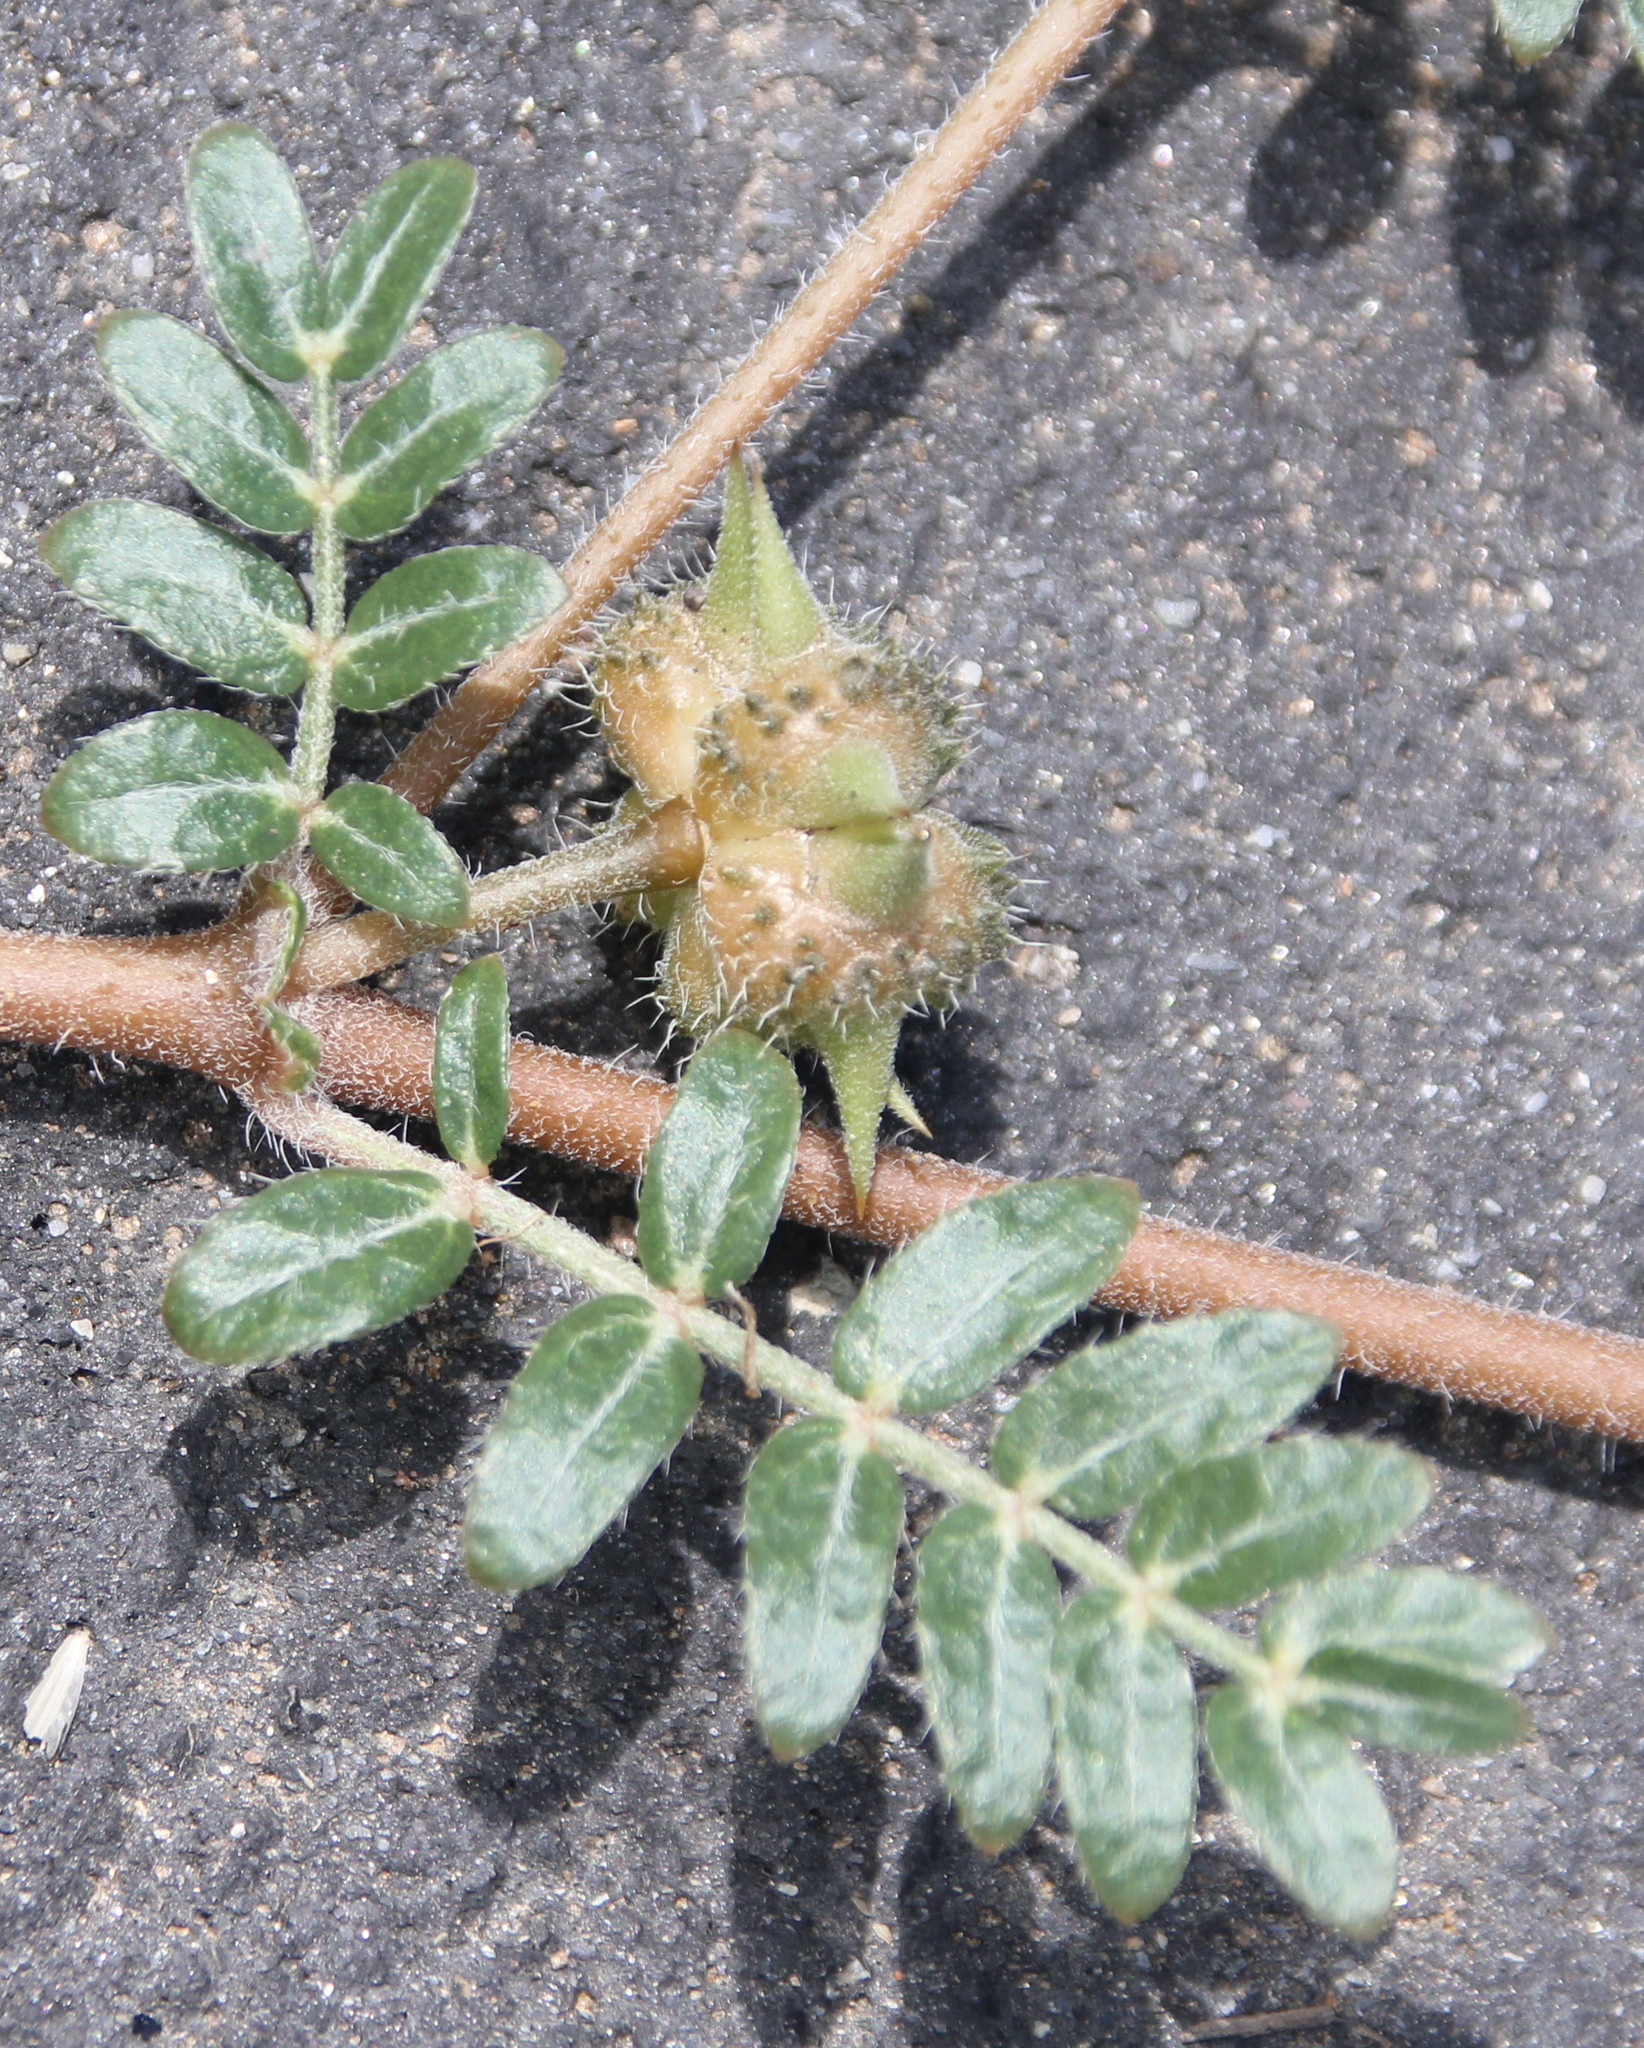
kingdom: Plantae
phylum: Tracheophyta
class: Magnoliopsida
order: Zygophyllales
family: Zygophyllaceae
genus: Tribulus
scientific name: Tribulus terrestris
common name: Puncturevine
